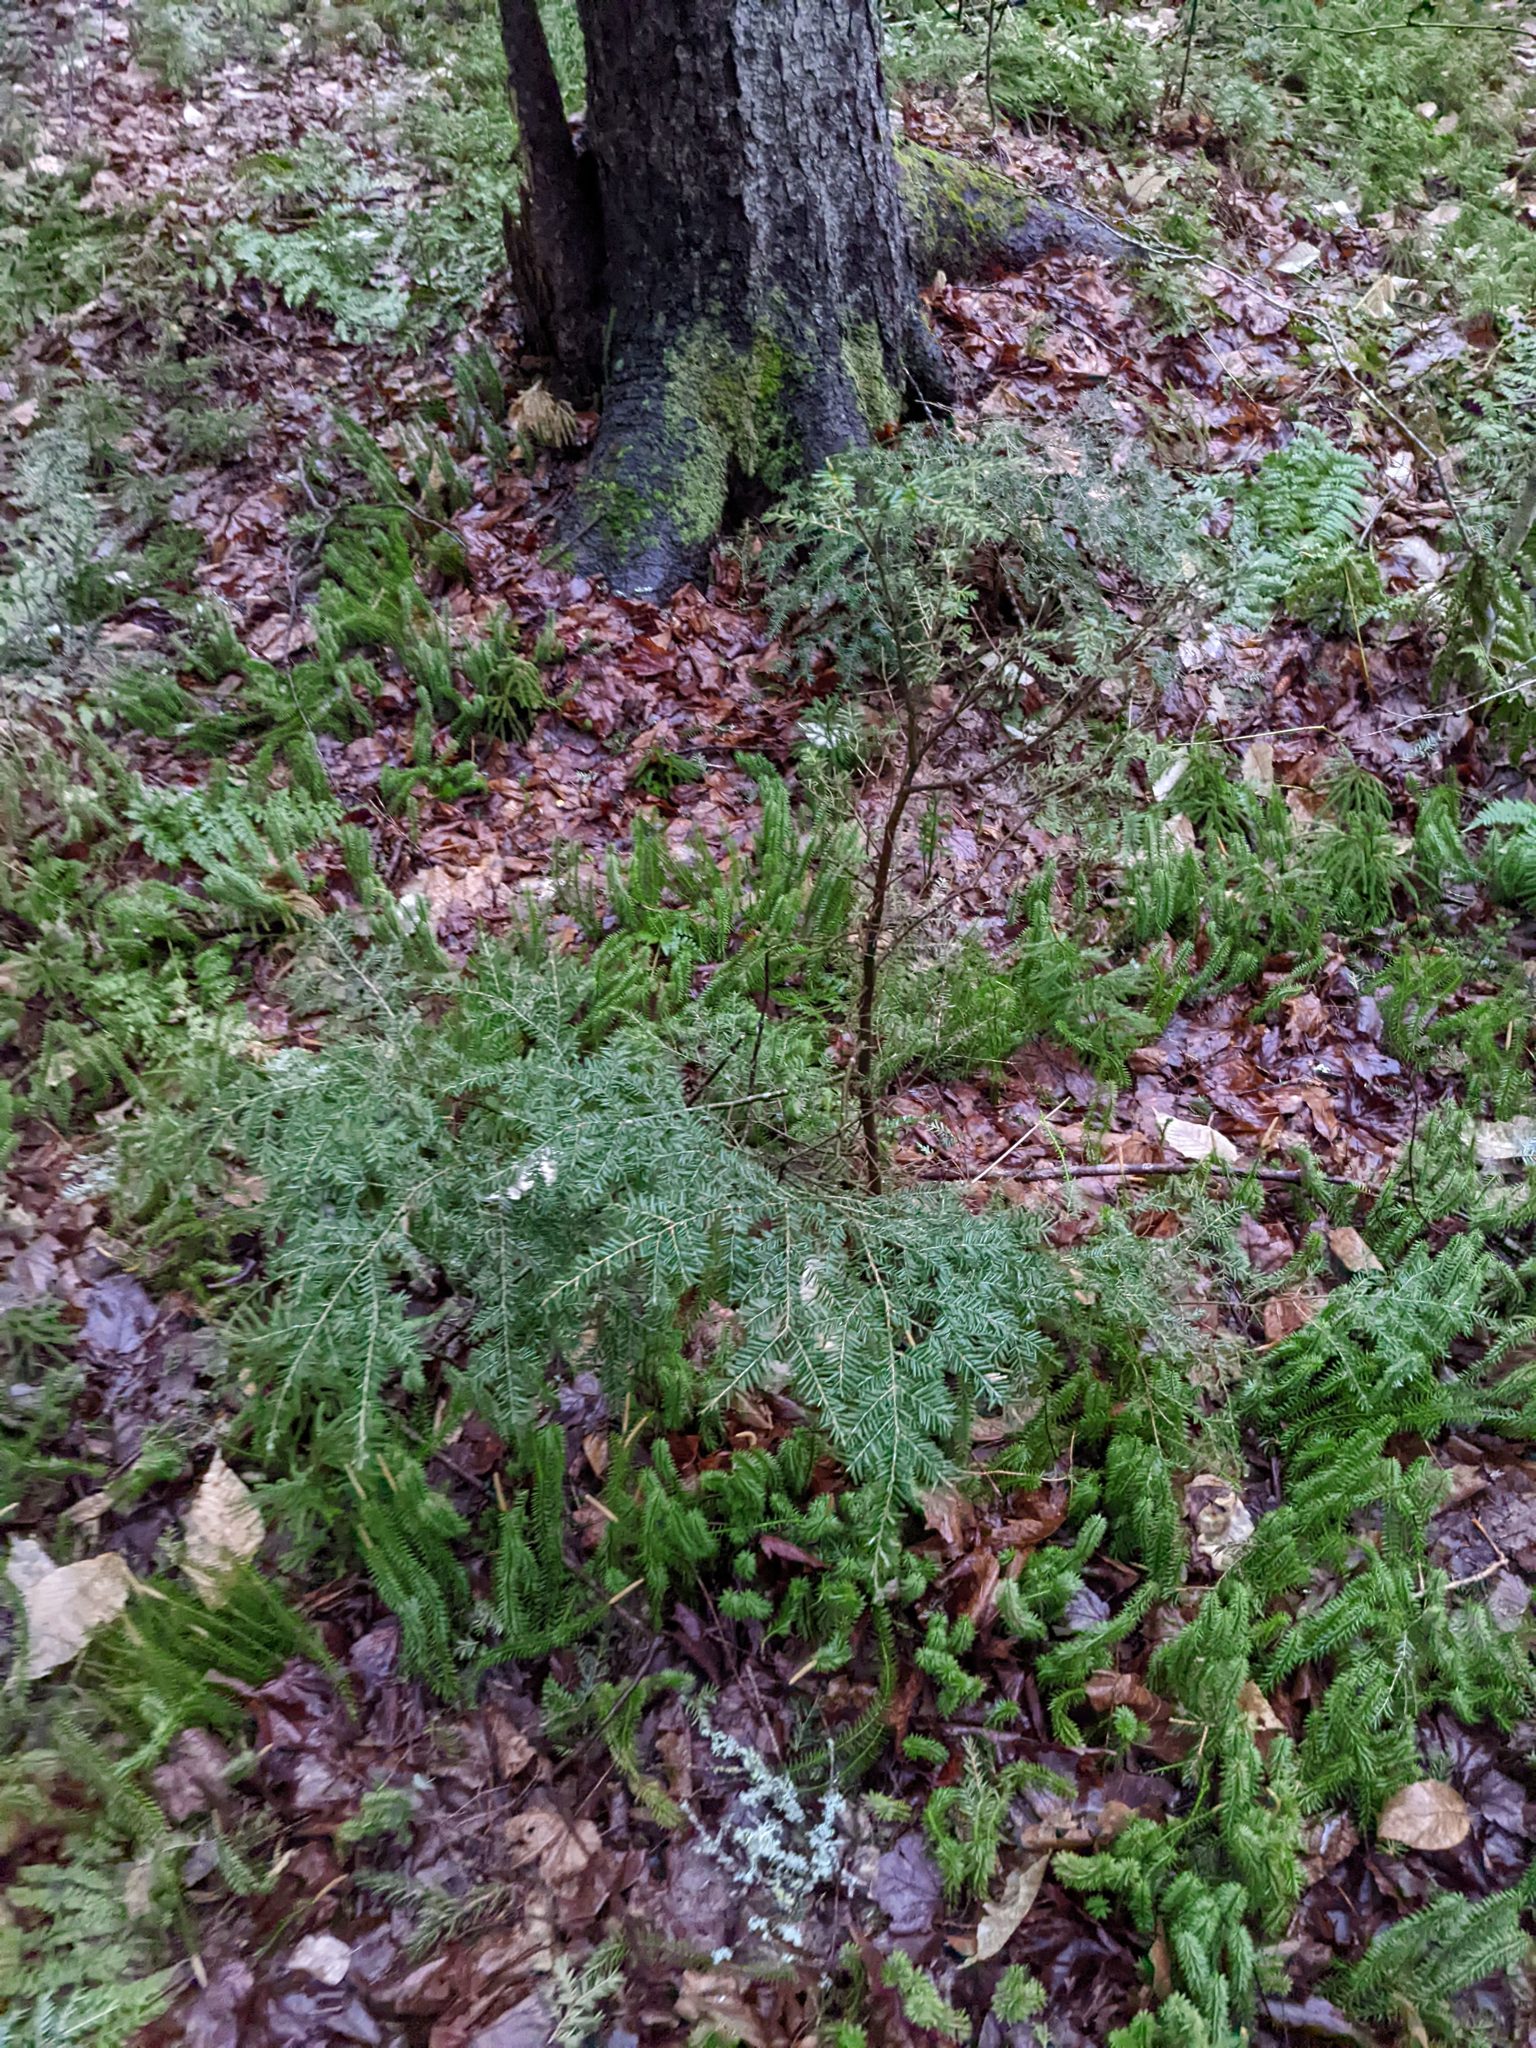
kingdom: Plantae
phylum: Tracheophyta
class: Pinopsida
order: Pinales
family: Pinaceae
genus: Tsuga
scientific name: Tsuga canadensis
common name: Eastern hemlock
